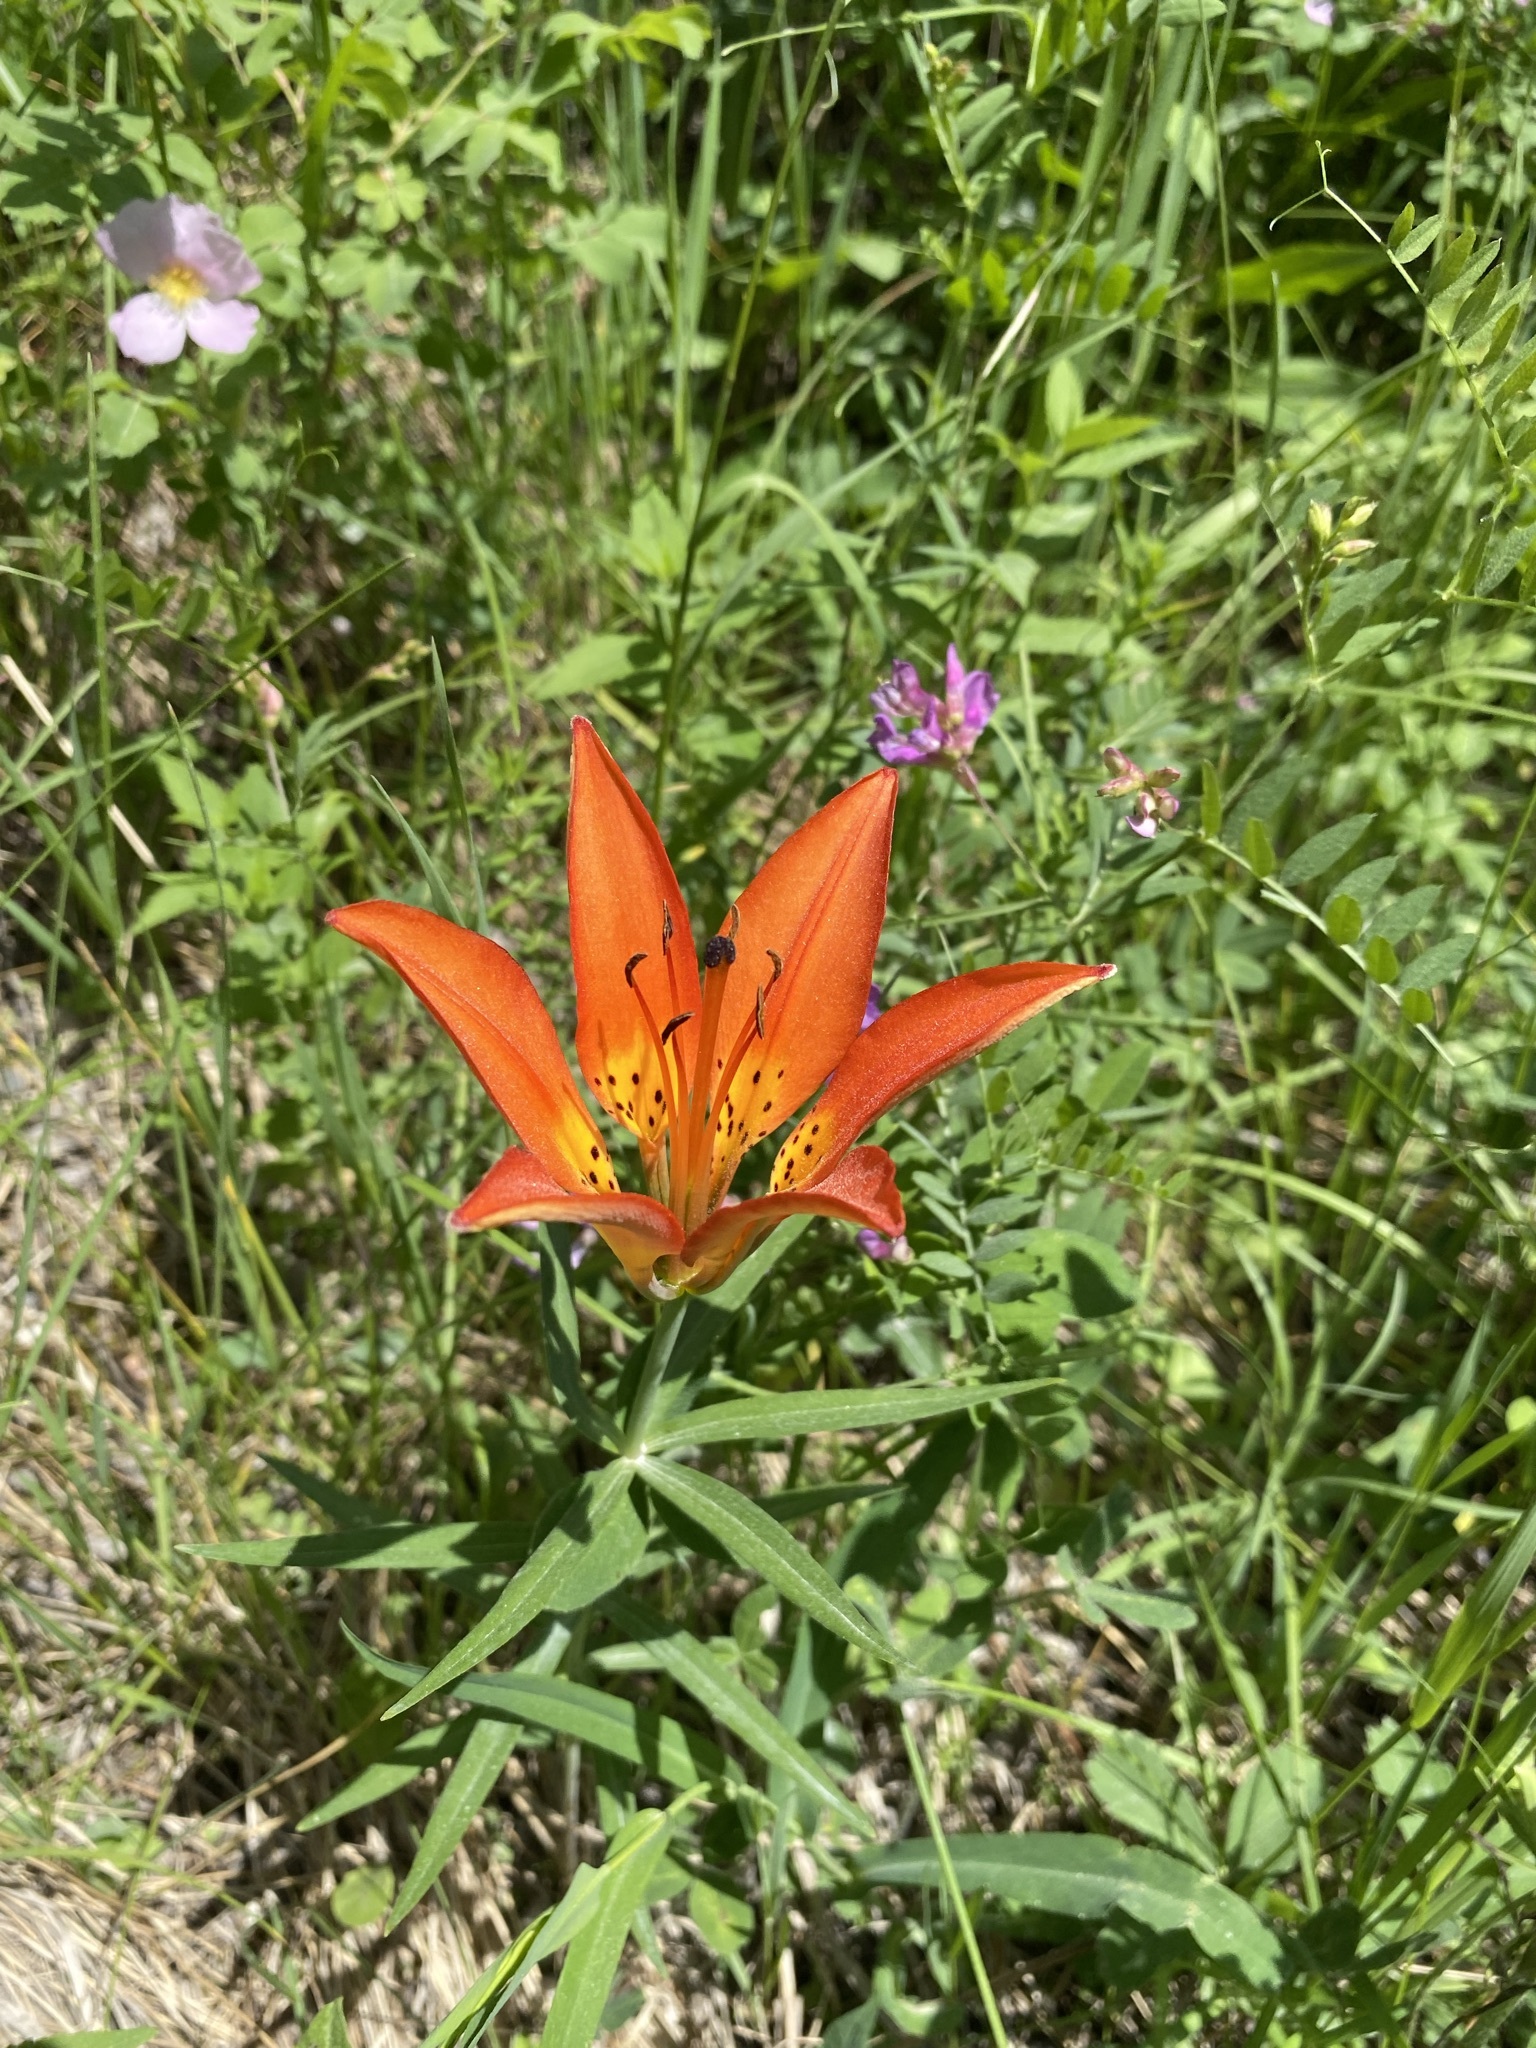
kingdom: Plantae
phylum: Tracheophyta
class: Liliopsida
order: Liliales
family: Liliaceae
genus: Lilium
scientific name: Lilium philadelphicum
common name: Red lily
